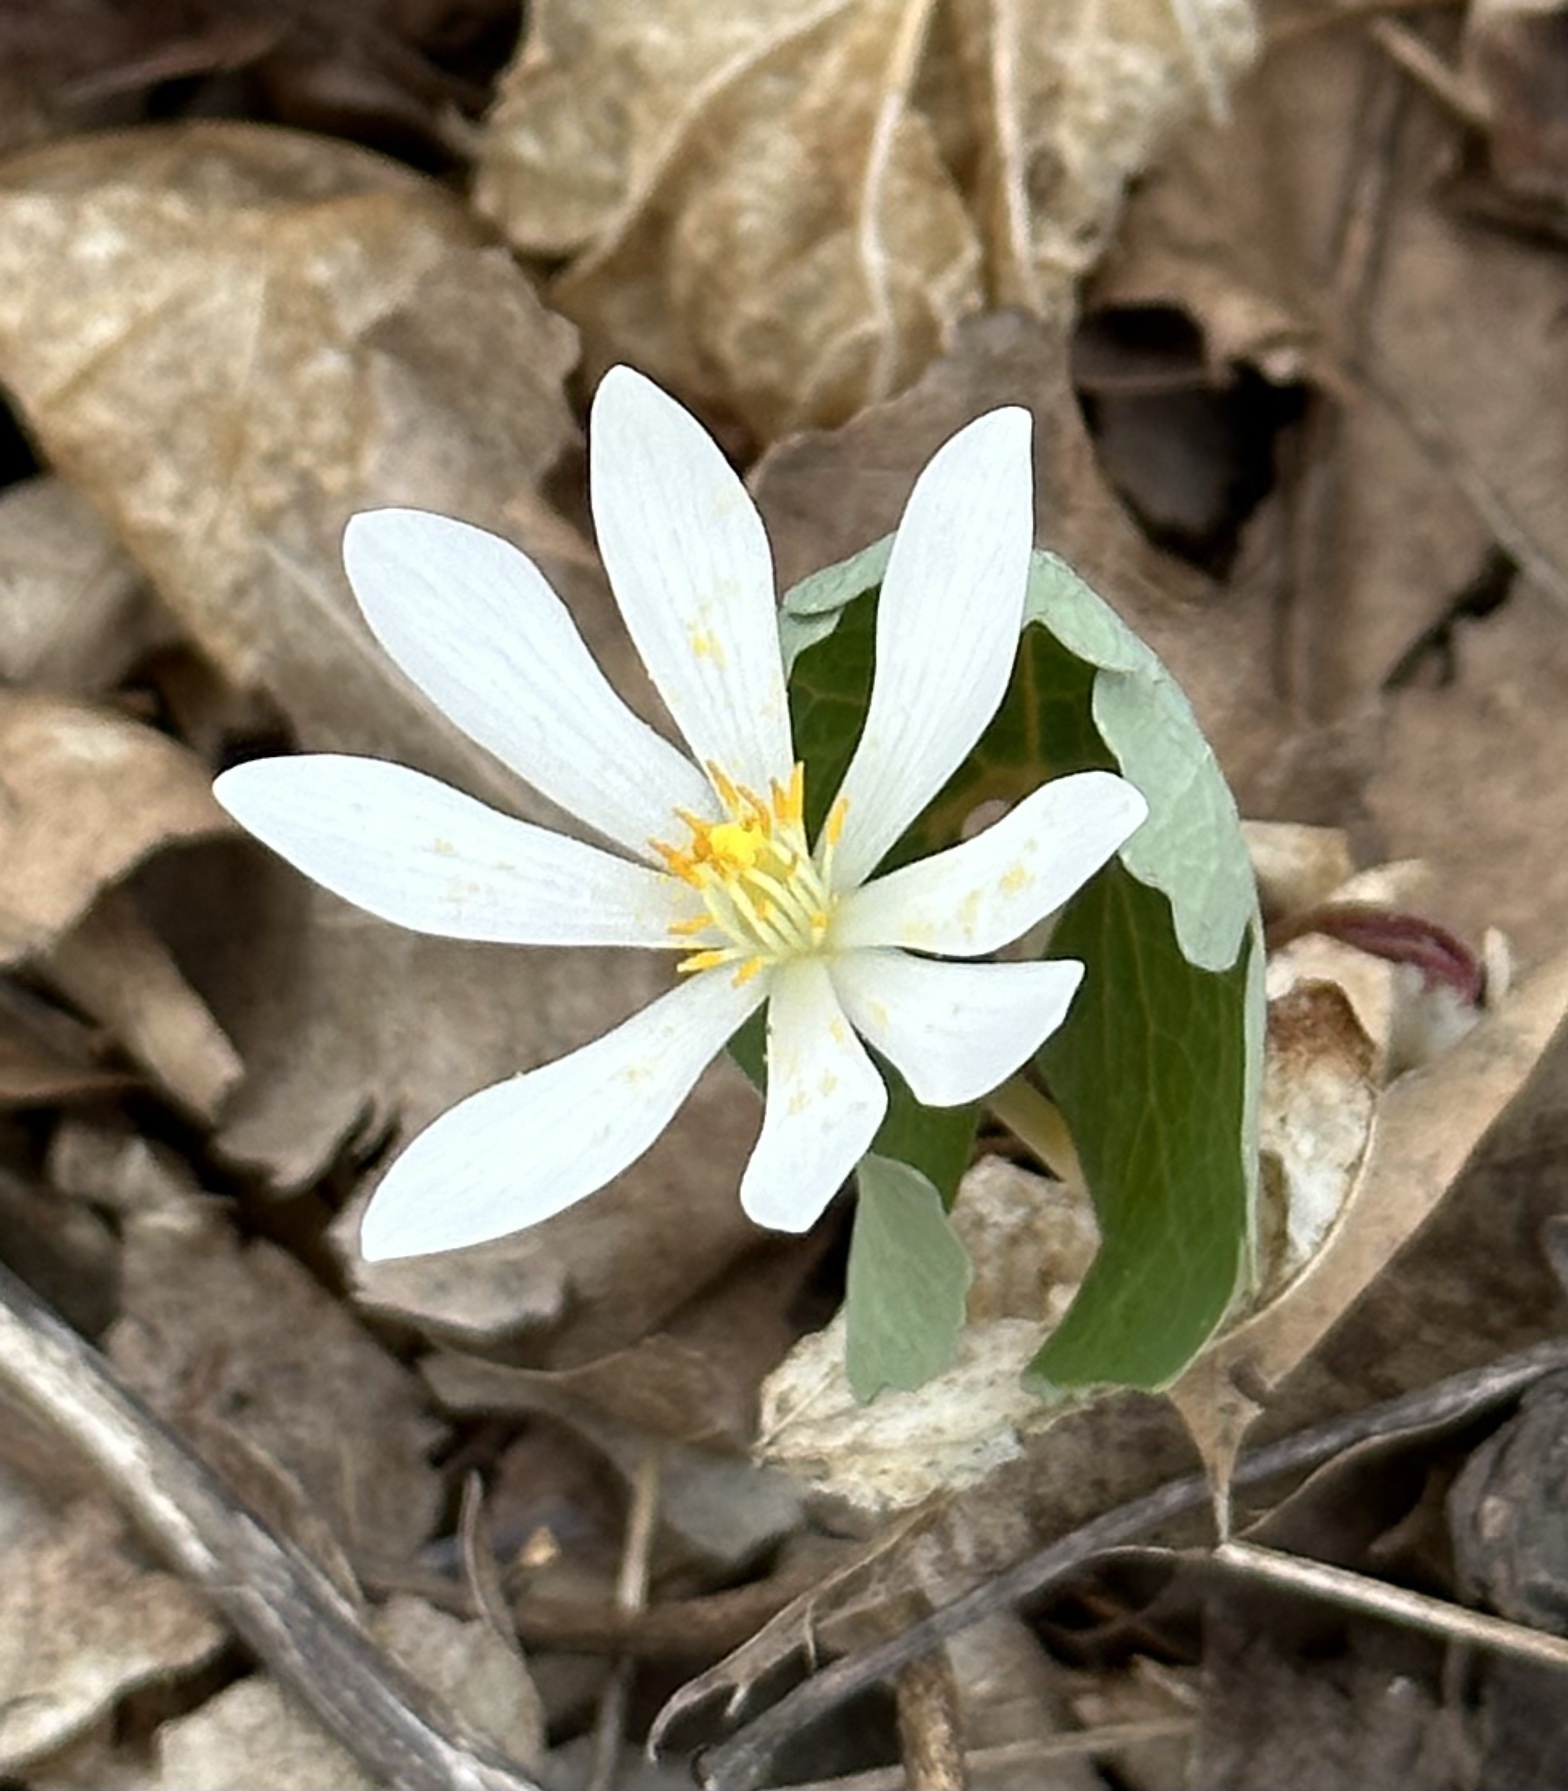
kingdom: Plantae
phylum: Tracheophyta
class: Magnoliopsida
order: Ranunculales
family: Papaveraceae
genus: Sanguinaria
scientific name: Sanguinaria canadensis
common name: Bloodroot
